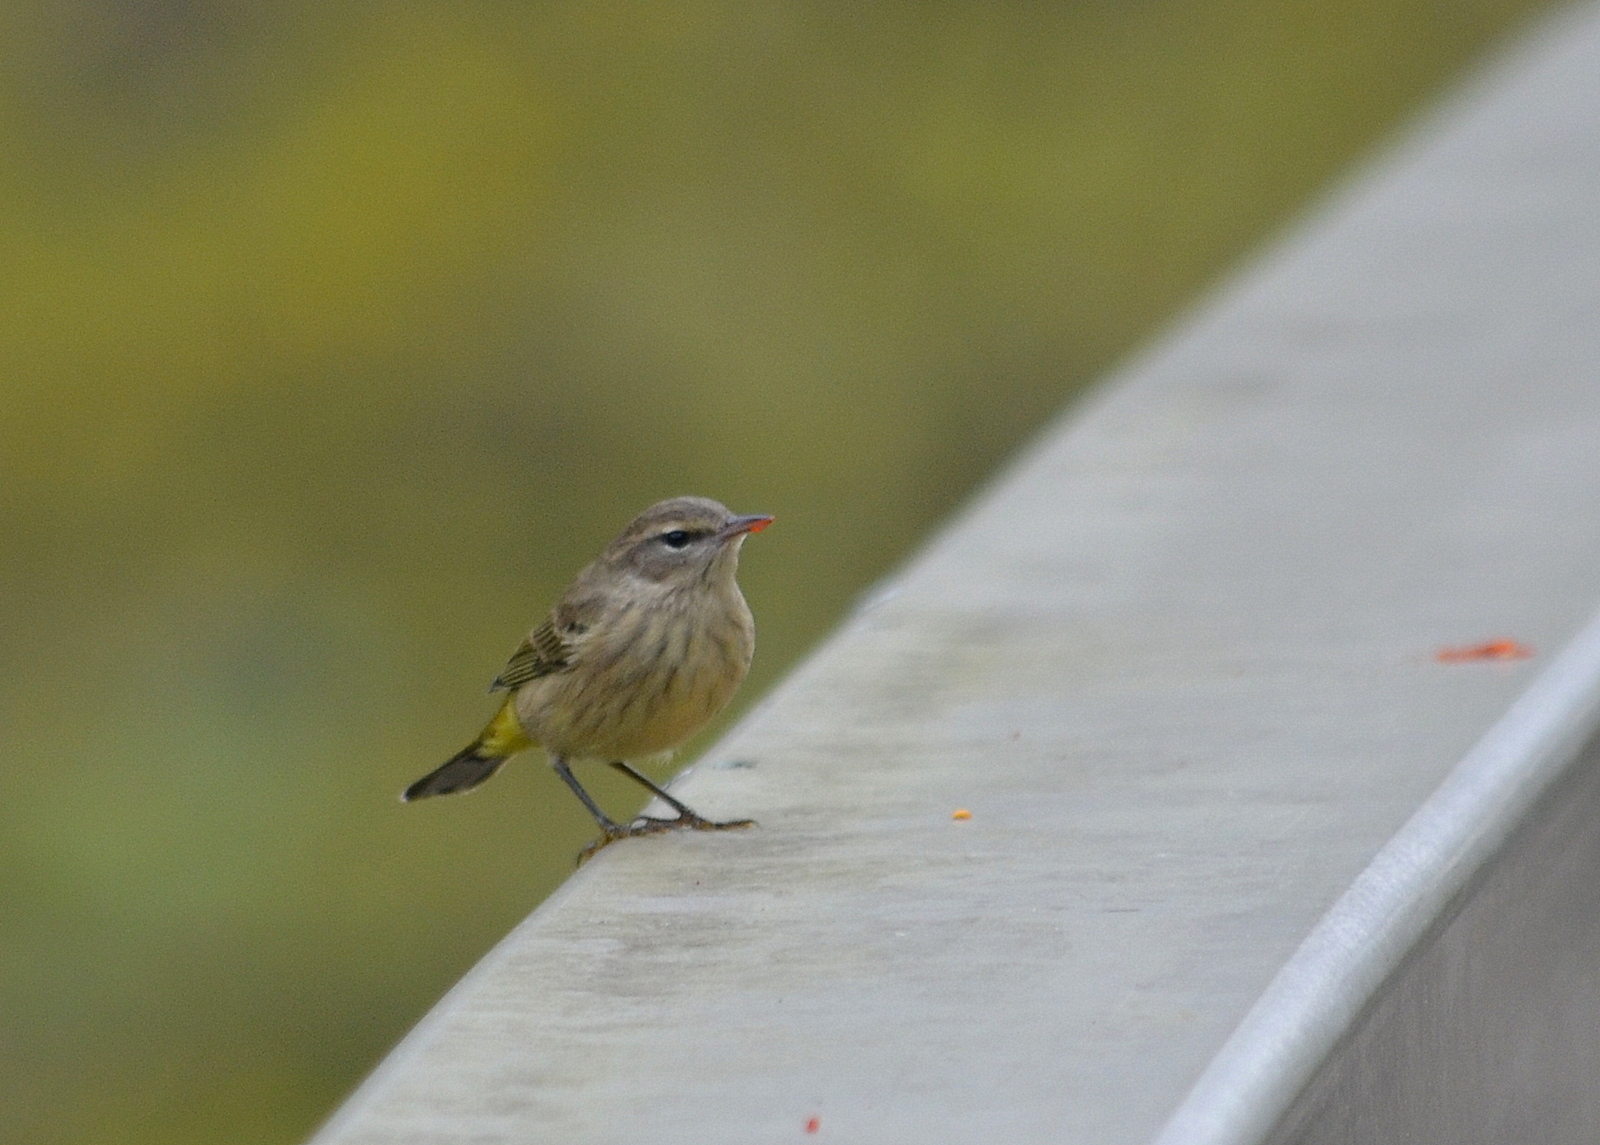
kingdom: Animalia
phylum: Chordata
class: Aves
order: Passeriformes
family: Parulidae
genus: Setophaga
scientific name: Setophaga palmarum
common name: Palm warbler
